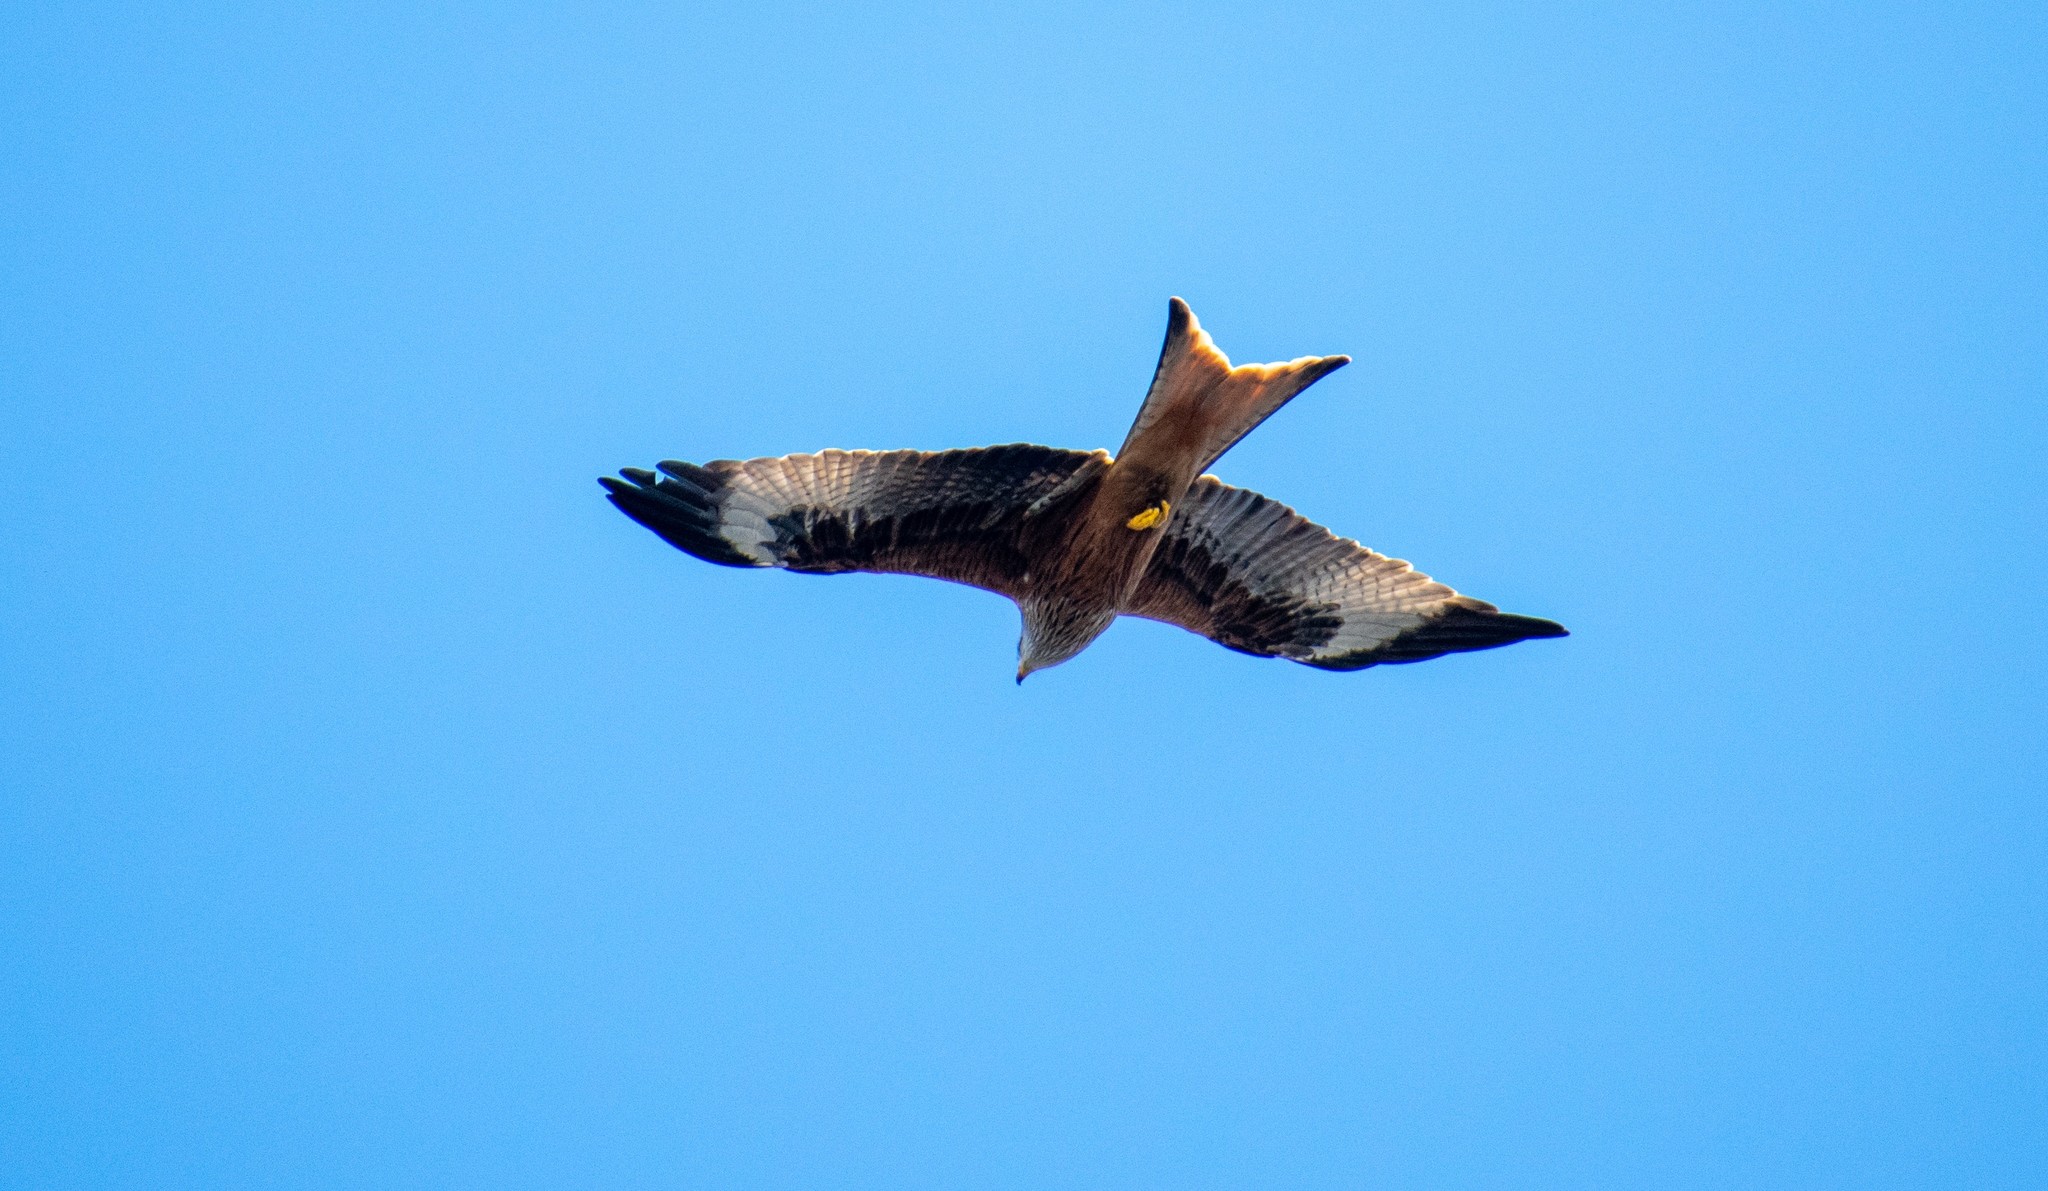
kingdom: Animalia
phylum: Chordata
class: Aves
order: Accipitriformes
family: Accipitridae
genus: Milvus
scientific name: Milvus milvus
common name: Red kite
